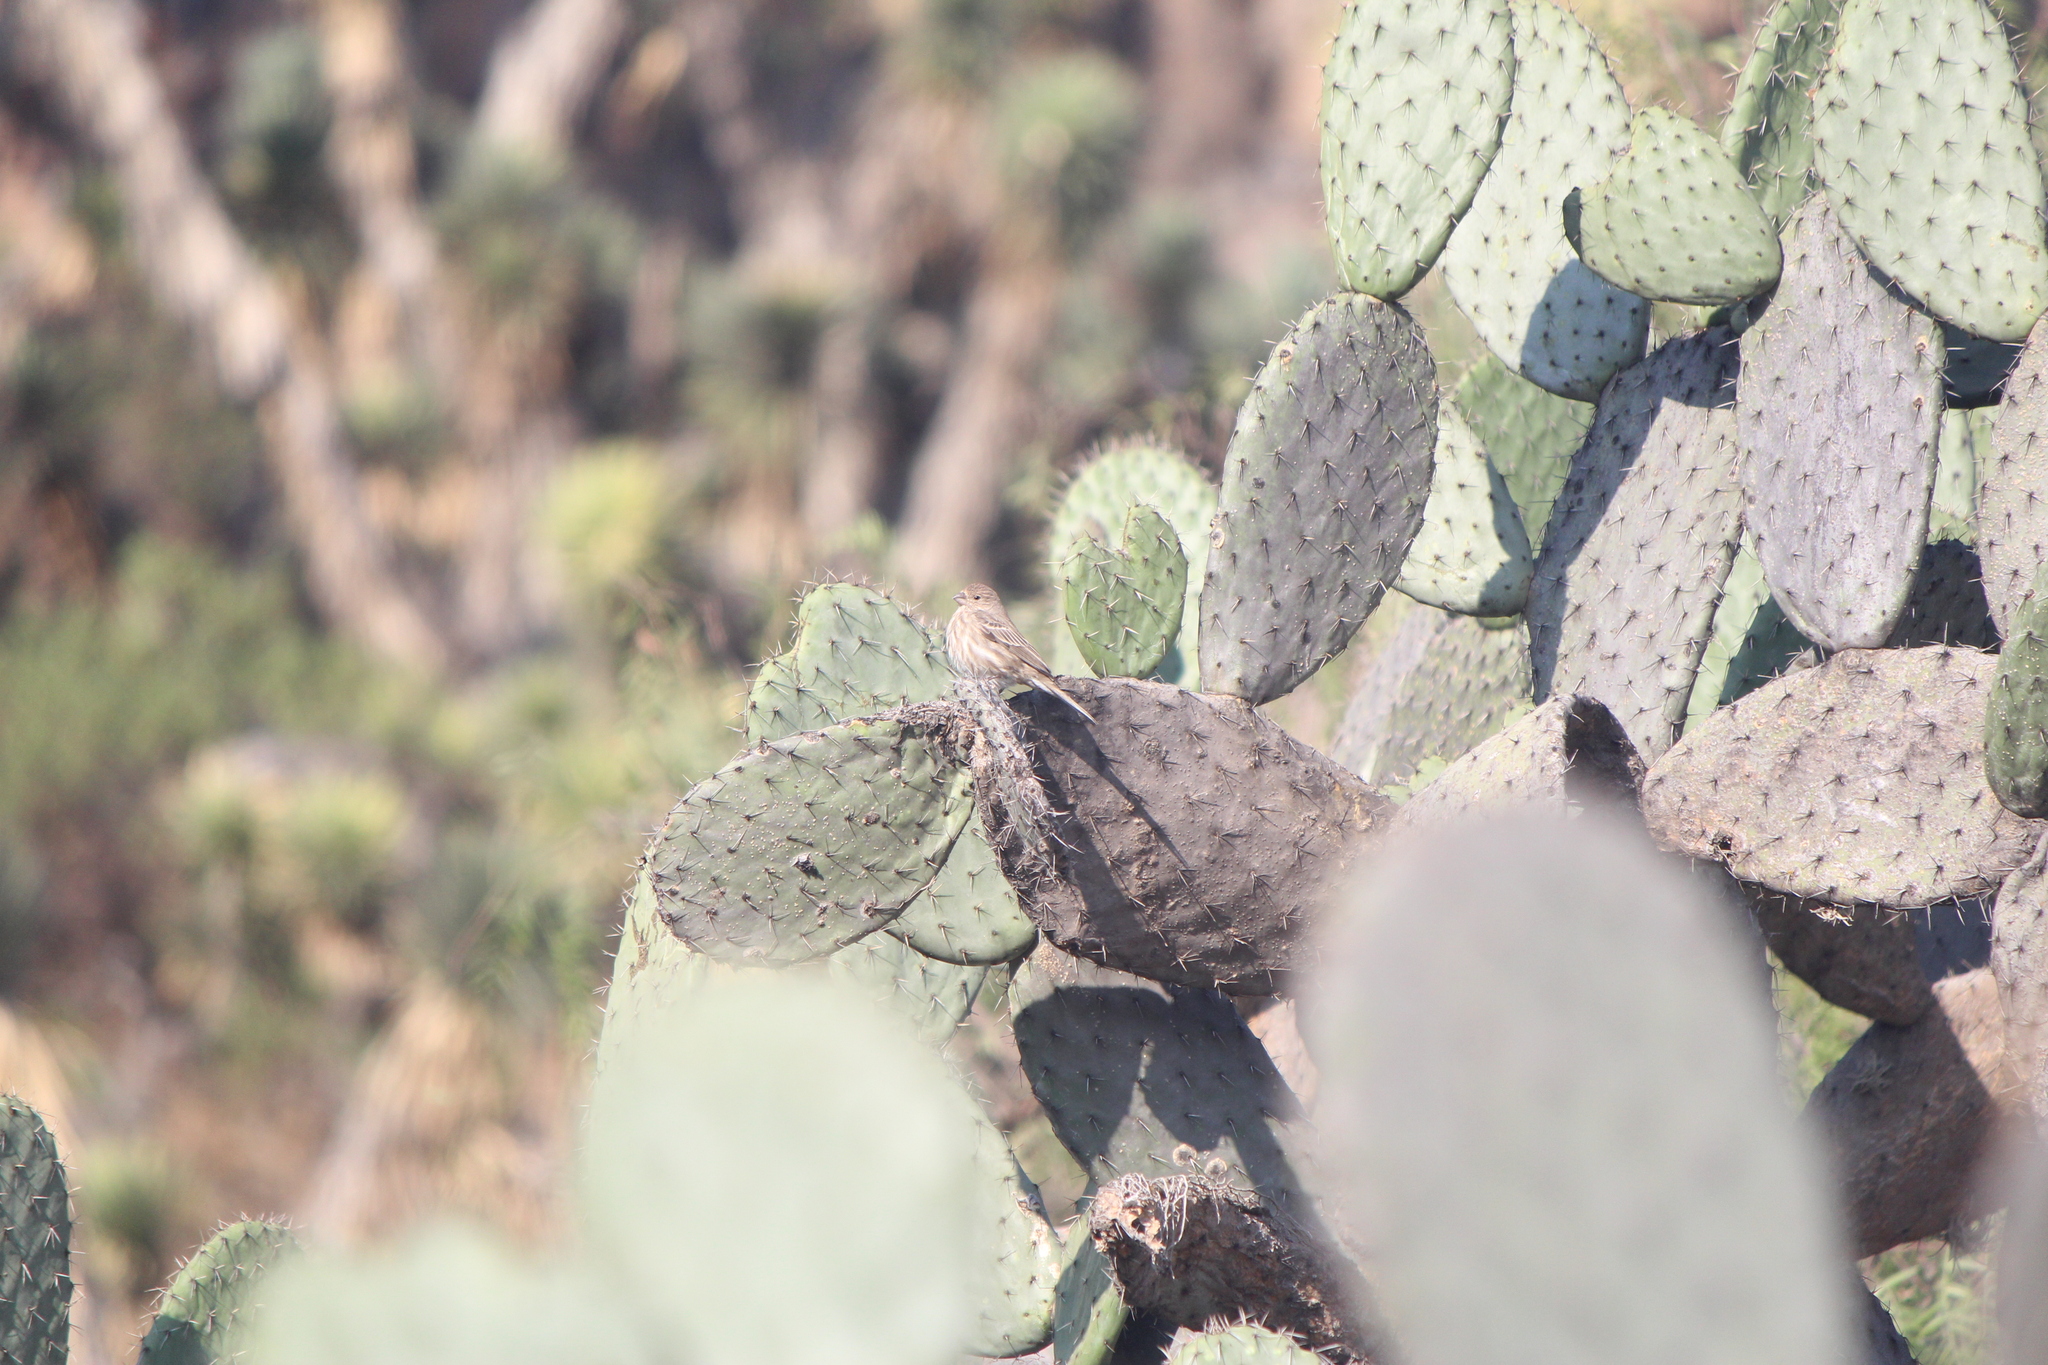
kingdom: Animalia
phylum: Chordata
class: Aves
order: Passeriformes
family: Fringillidae
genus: Haemorhous
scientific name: Haemorhous mexicanus
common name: House finch
